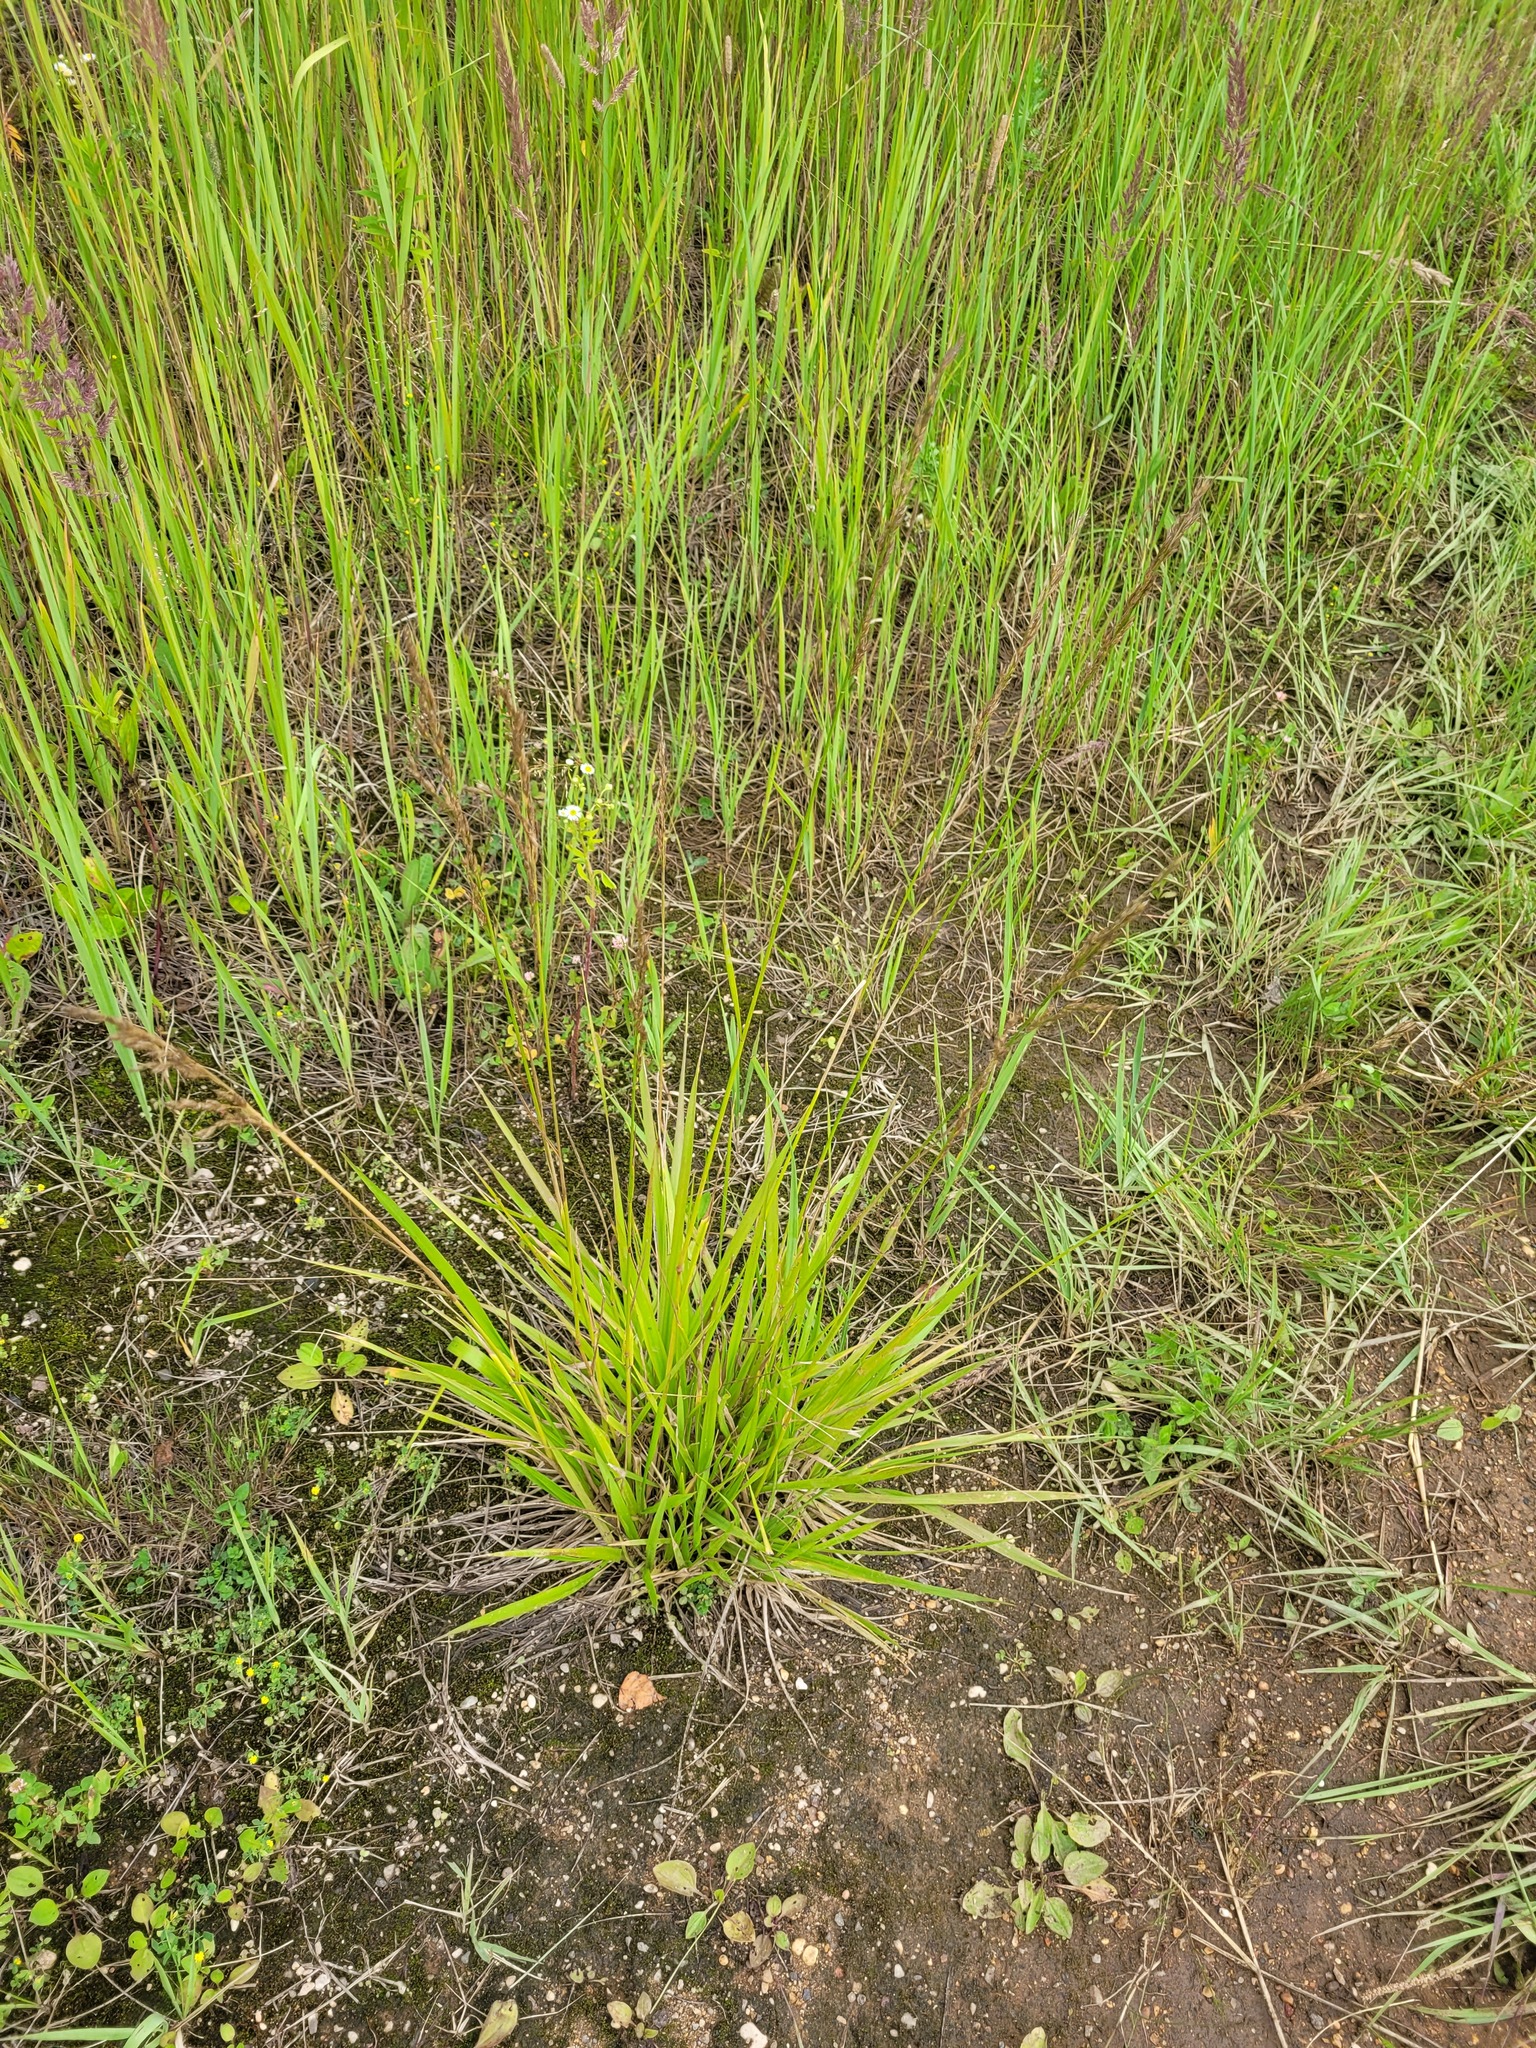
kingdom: Plantae
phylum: Tracheophyta
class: Liliopsida
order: Poales
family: Poaceae
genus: Lolium
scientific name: Lolium arundinaceum
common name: Reed fescue
